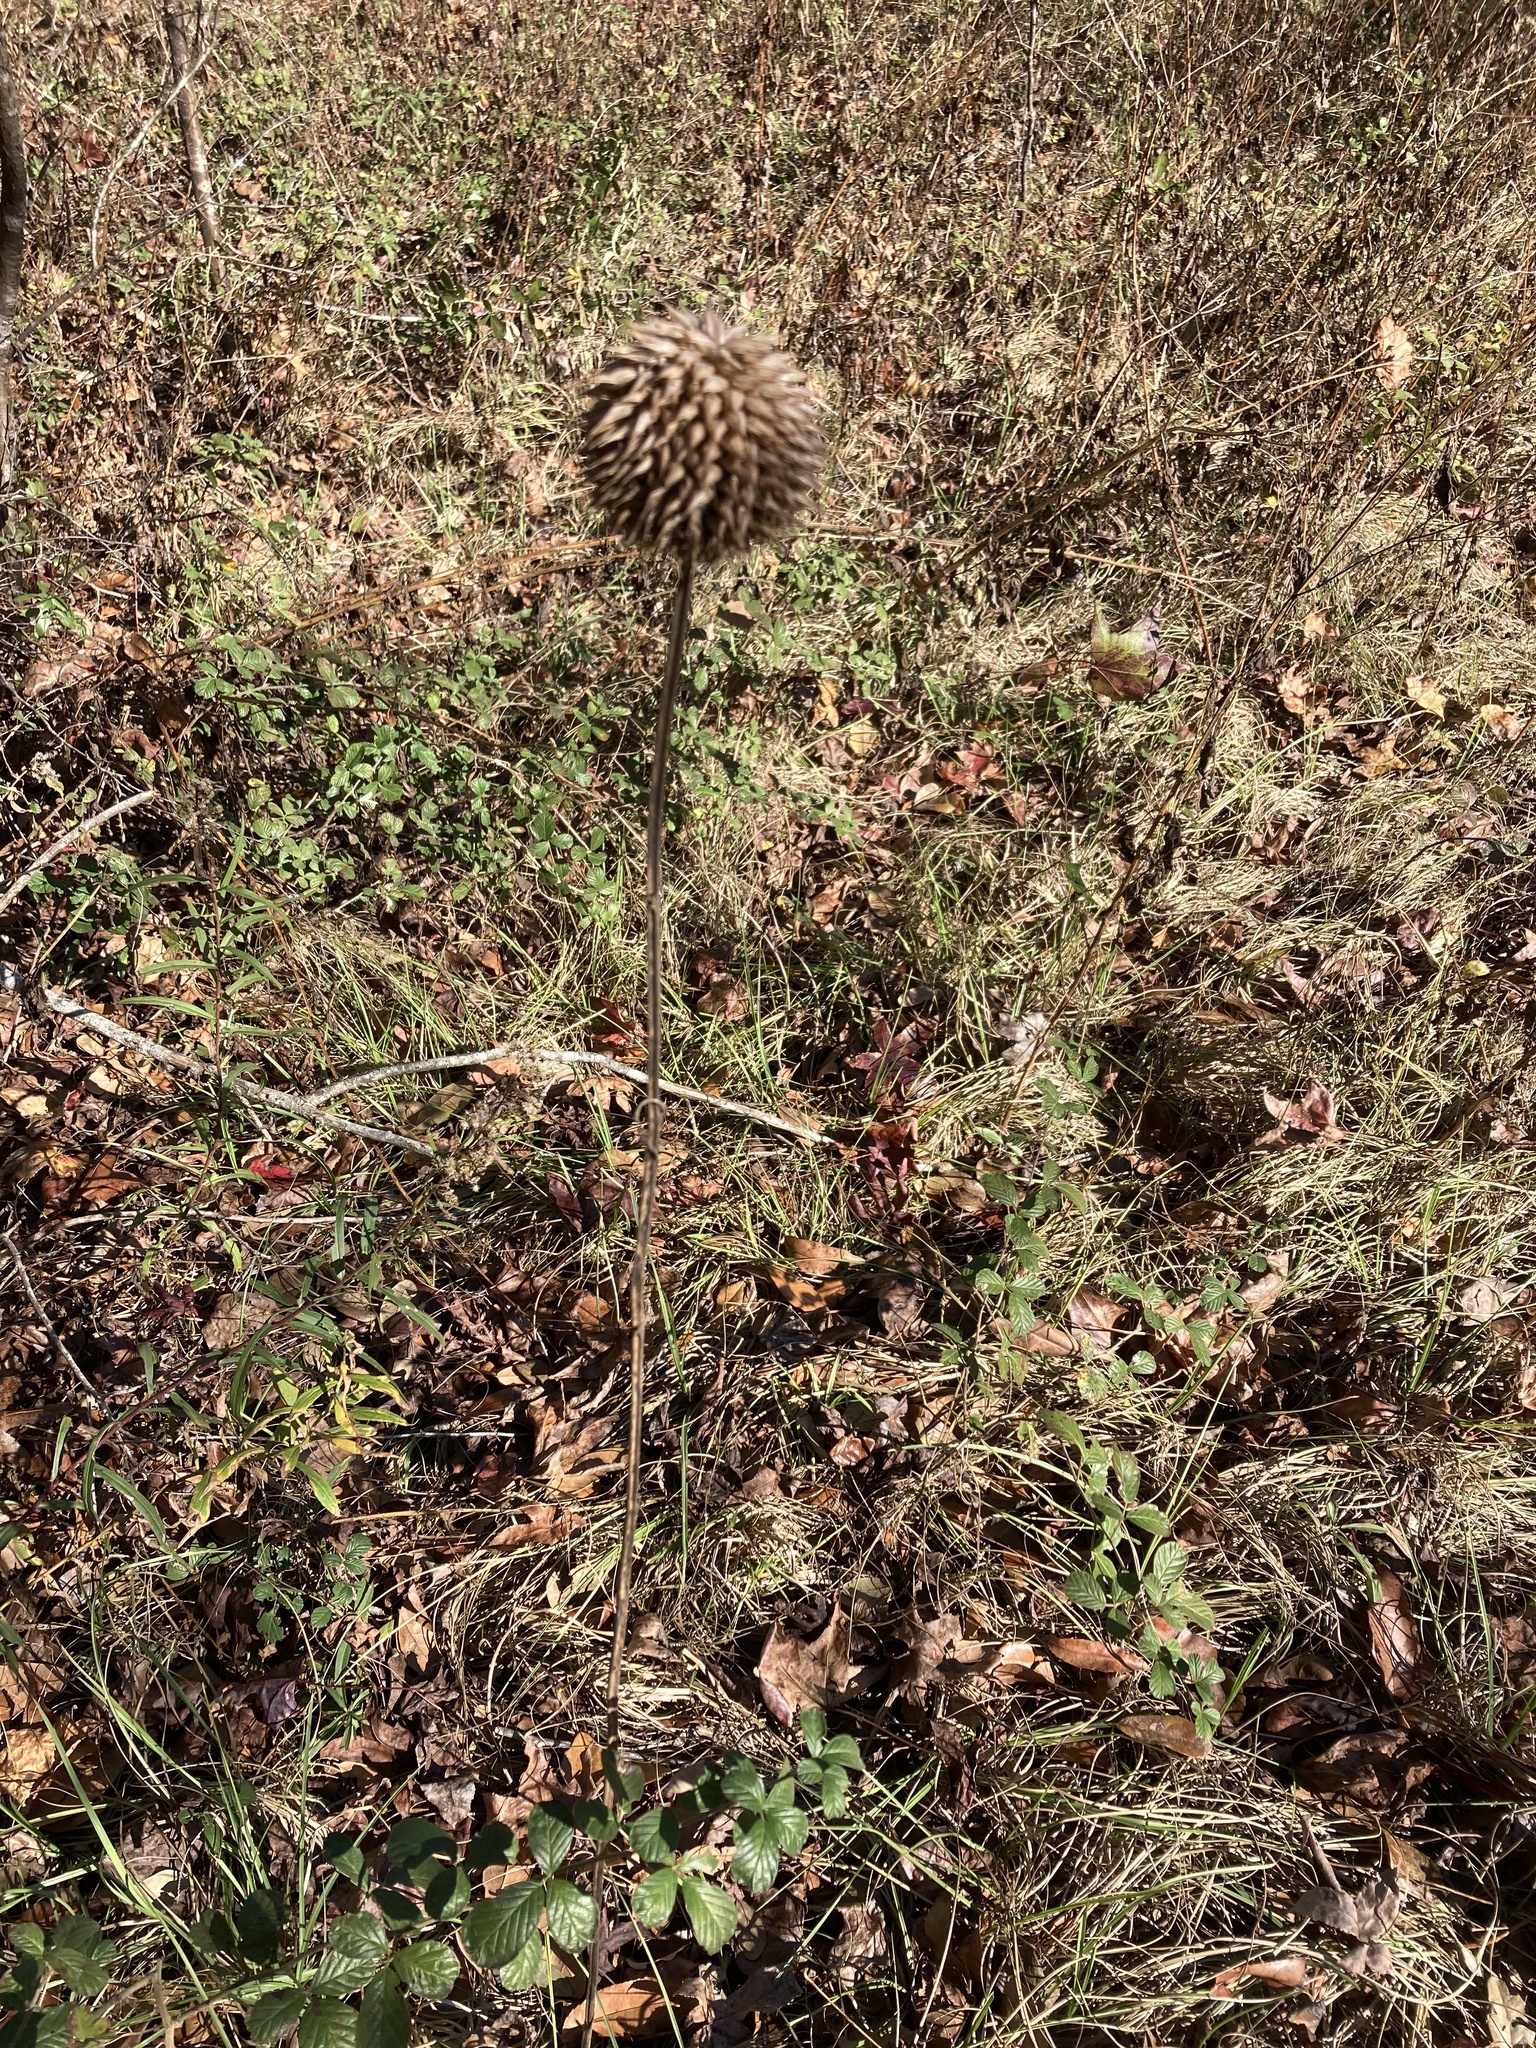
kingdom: Plantae
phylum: Tracheophyta
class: Magnoliopsida
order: Lamiales
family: Lamiaceae
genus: Leonotis
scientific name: Leonotis nepetifolia
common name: Christmas candlestick
